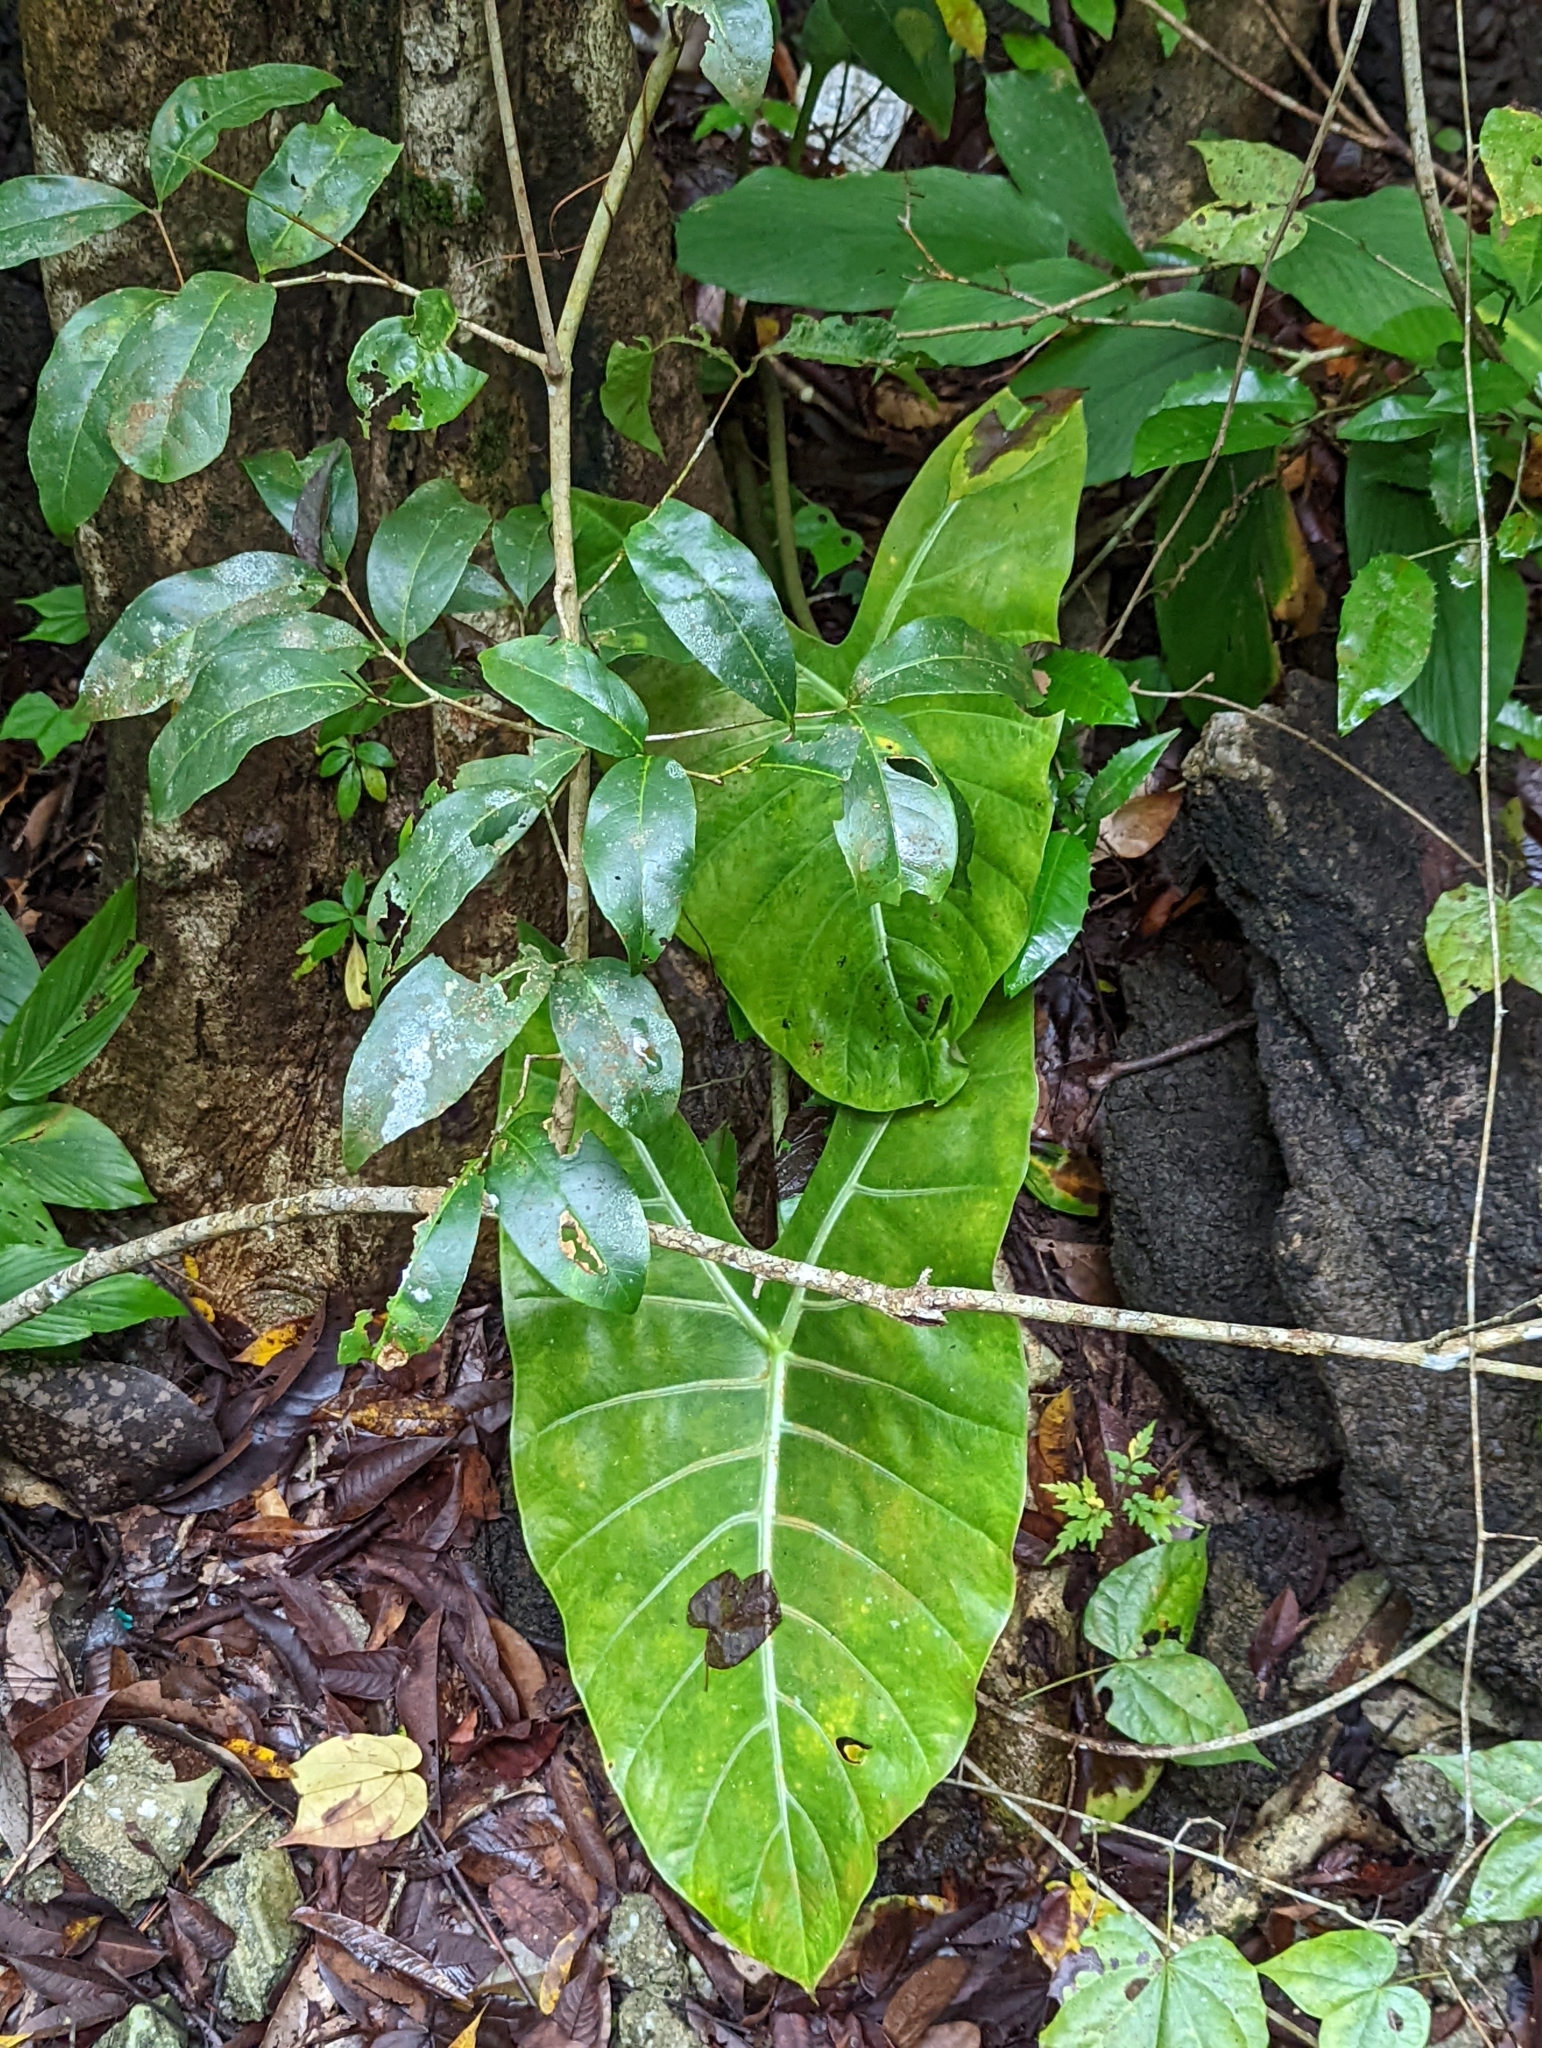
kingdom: Plantae
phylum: Tracheophyta
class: Liliopsida
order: Alismatales
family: Araceae
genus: Alocasia
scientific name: Alocasia longiloba
